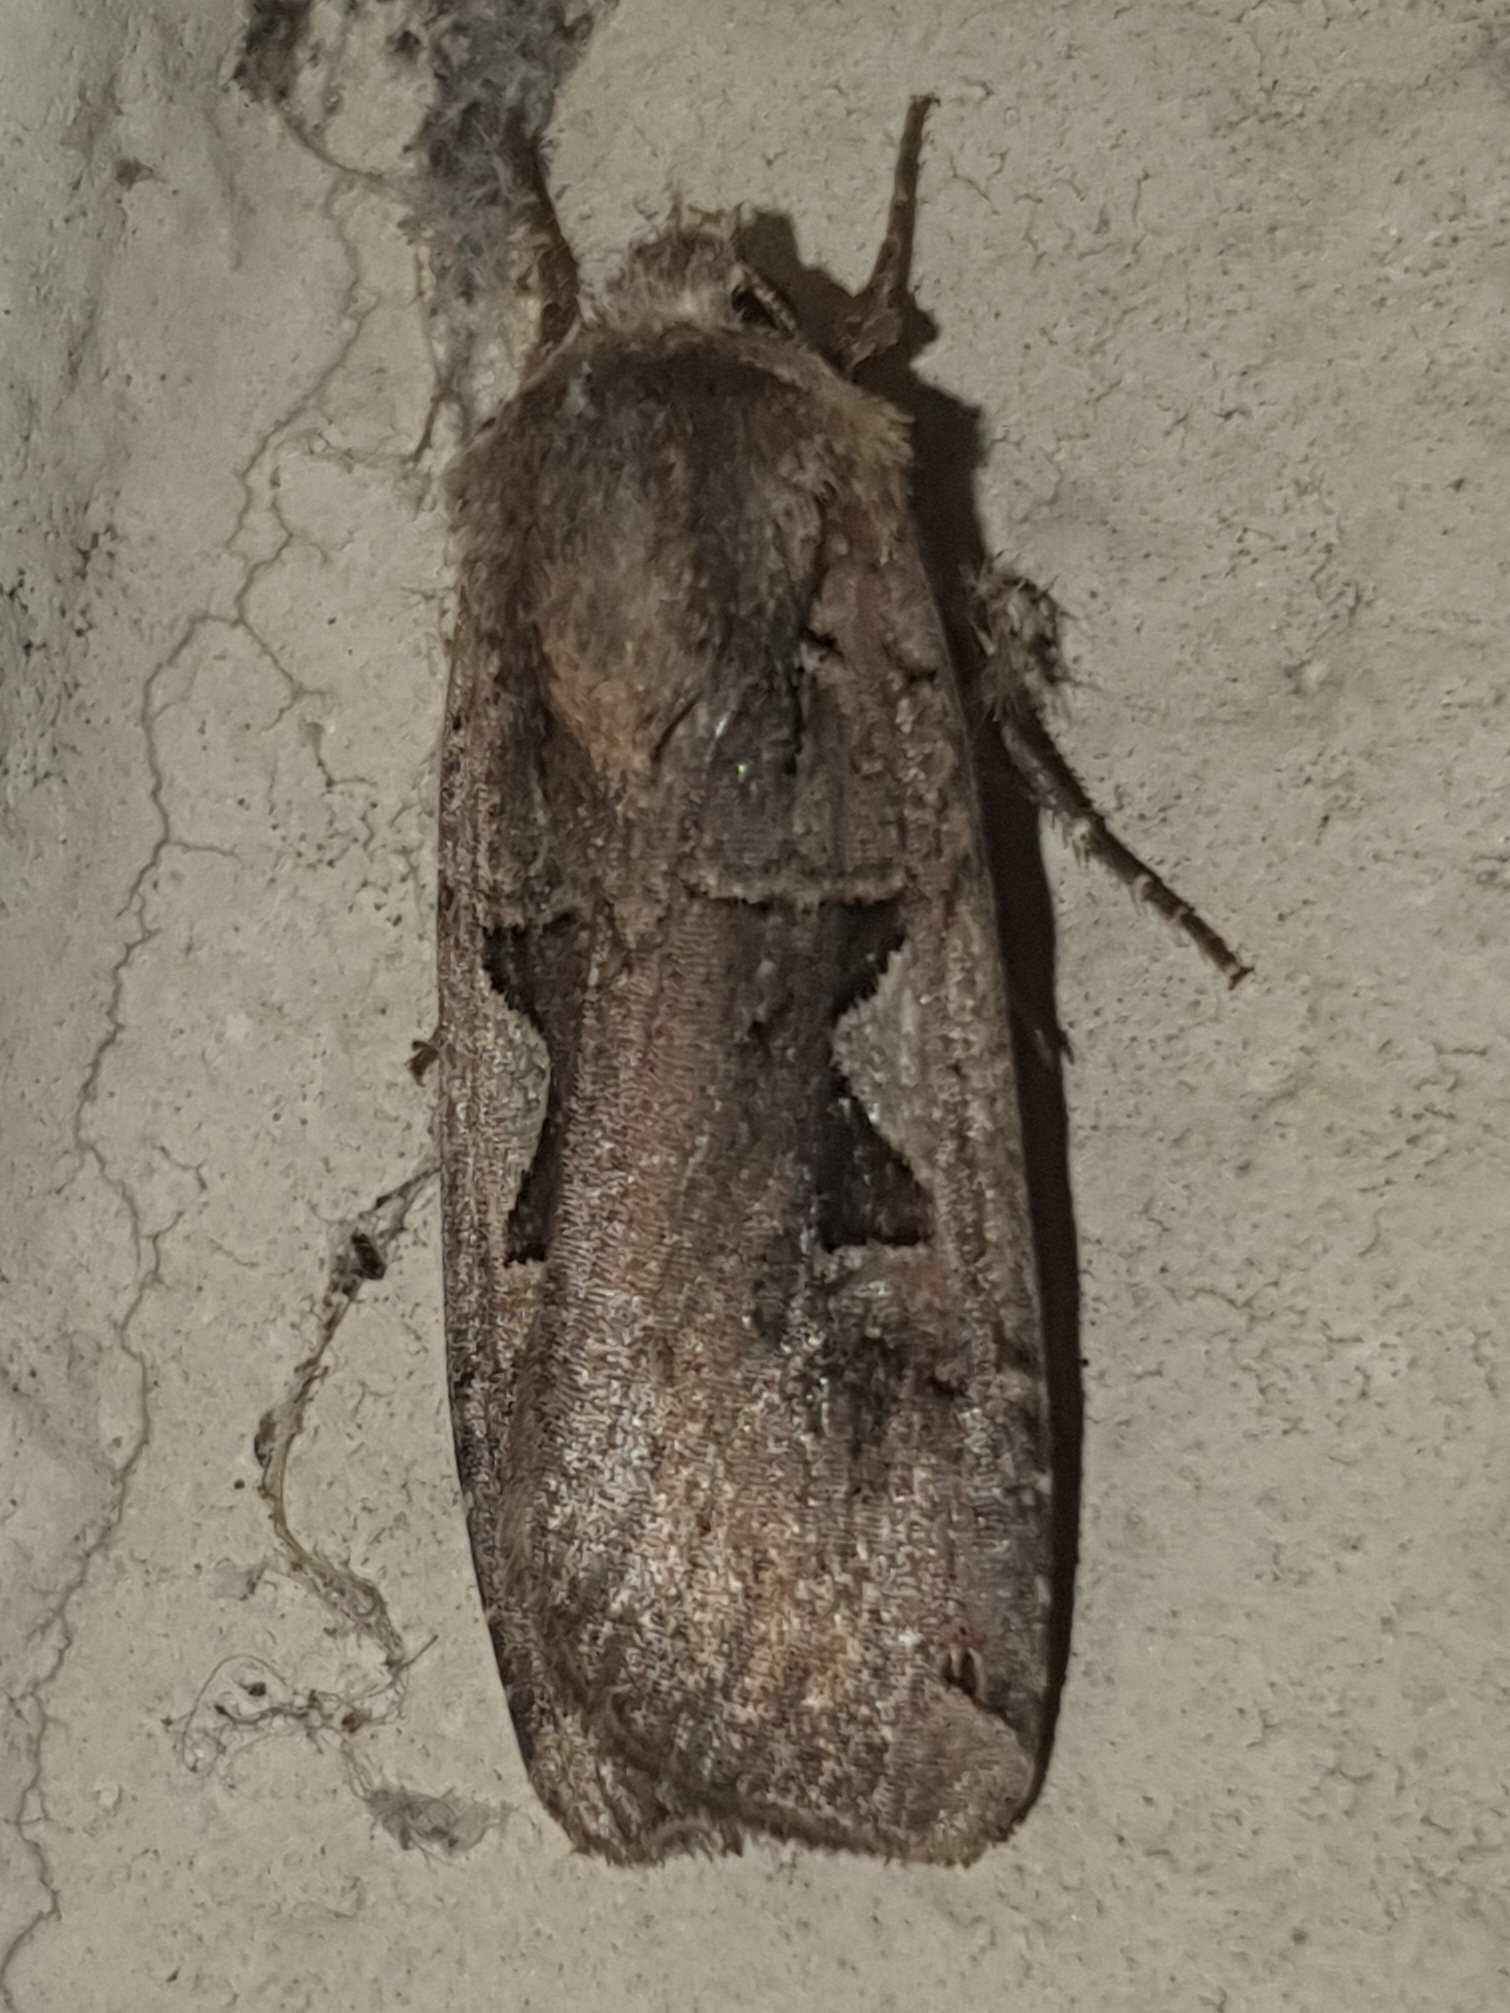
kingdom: Animalia
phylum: Arthropoda
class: Insecta
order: Lepidoptera
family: Noctuidae
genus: Xestia
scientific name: Xestia c-nigrum
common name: Setaceous hebrew character
